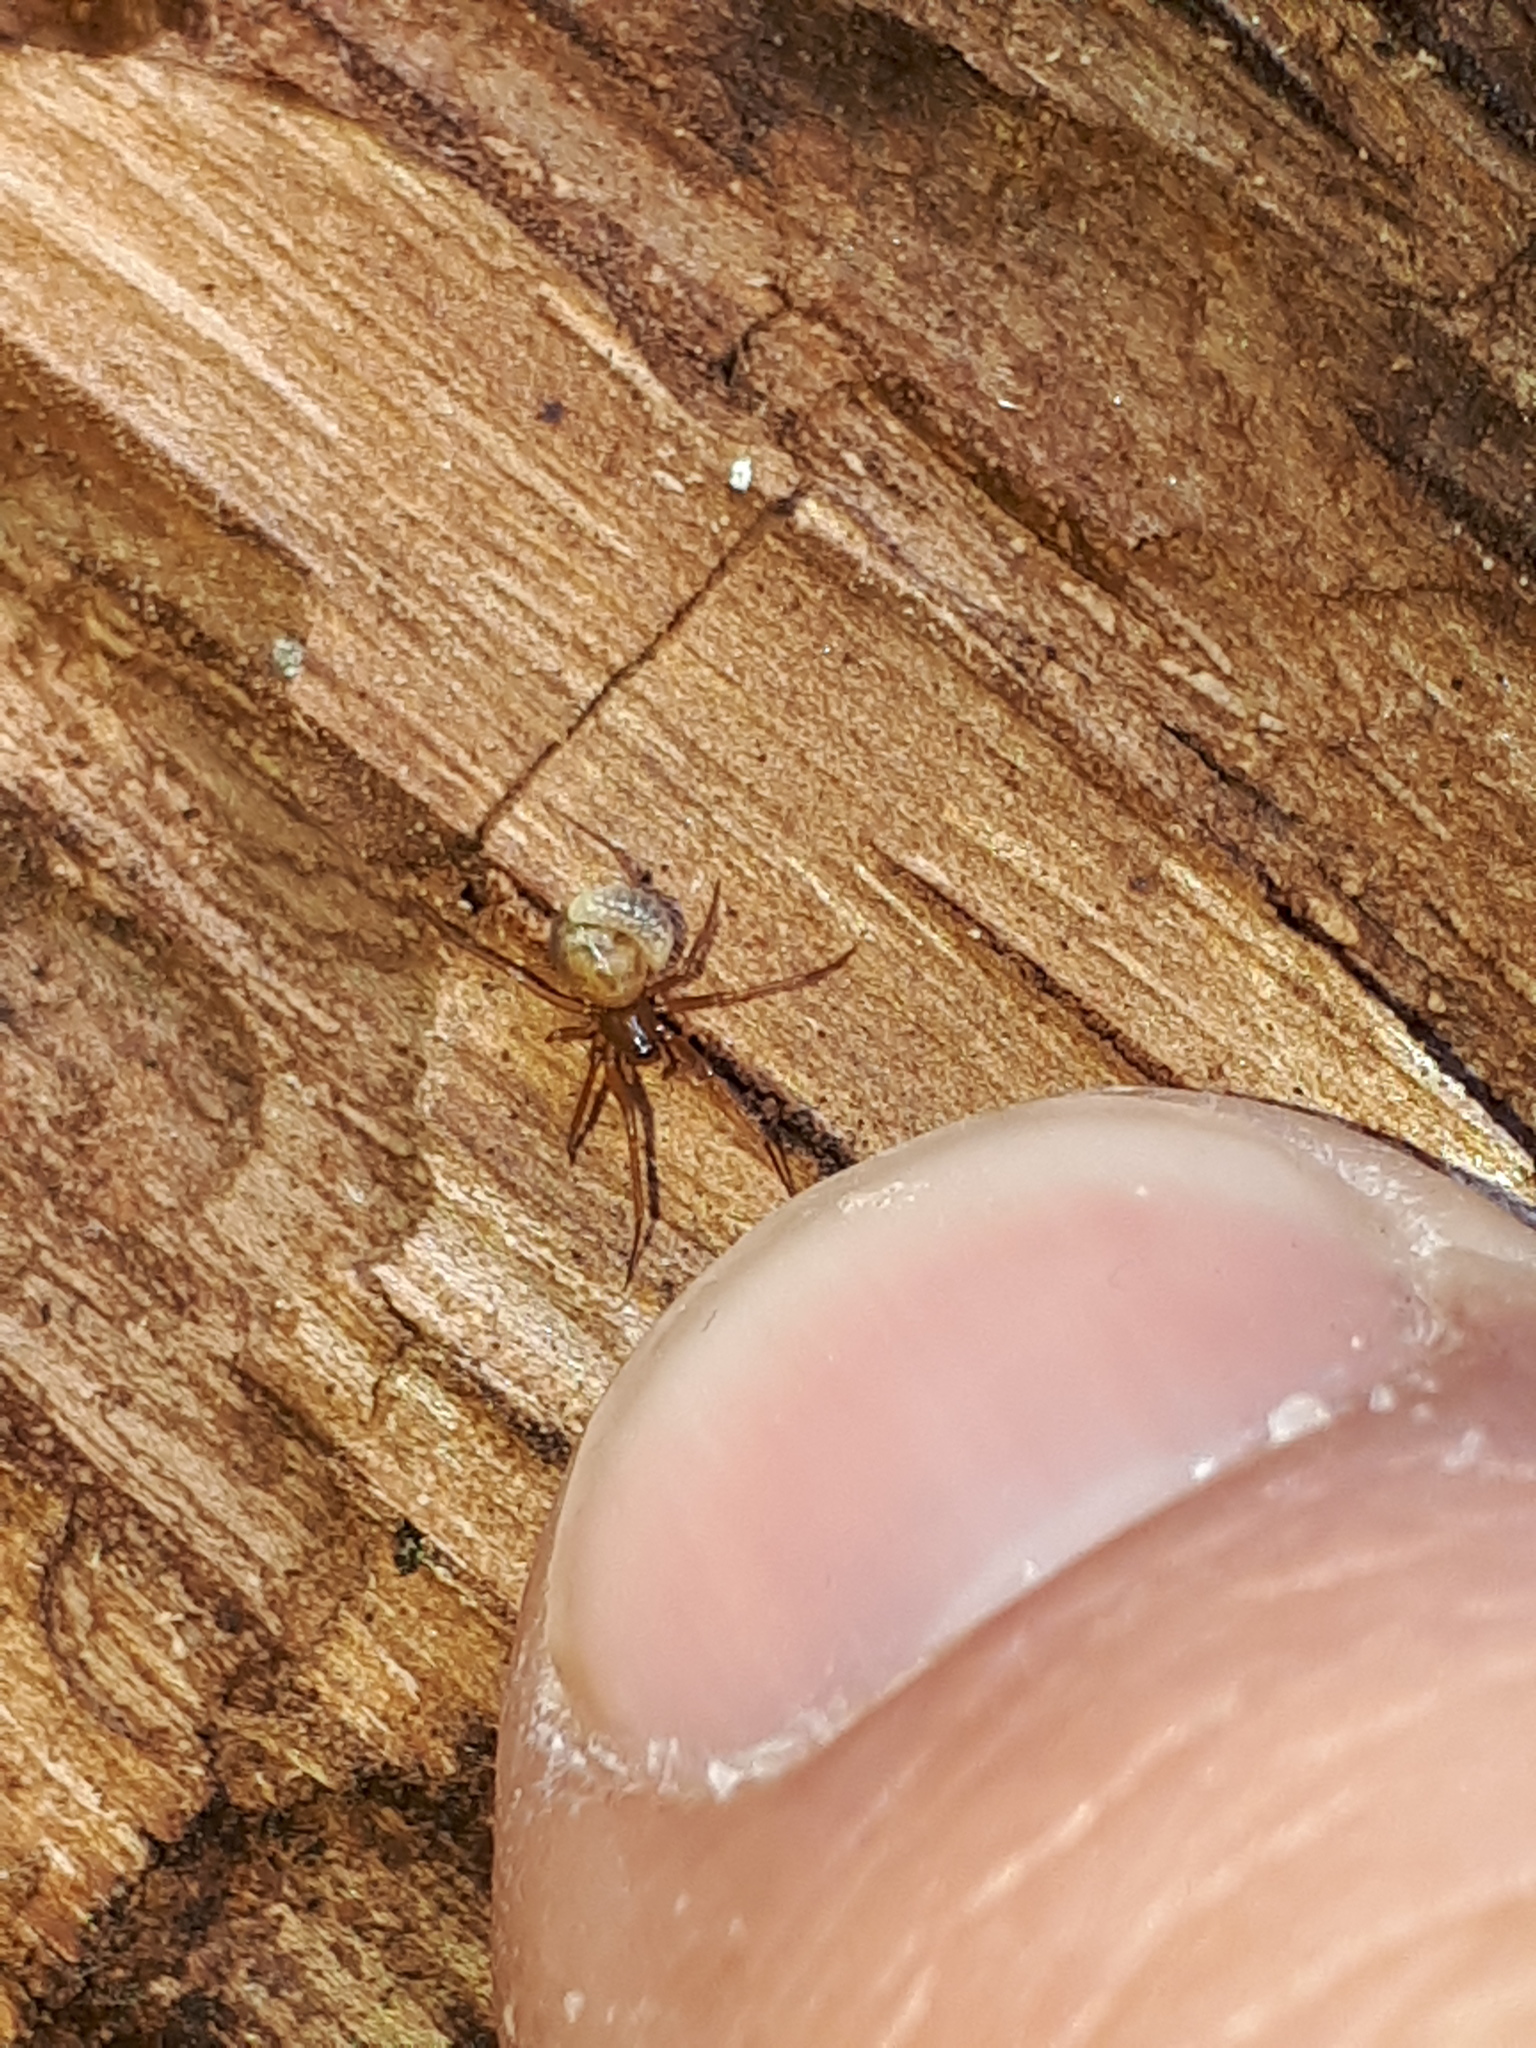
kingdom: Animalia
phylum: Arthropoda
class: Arachnida
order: Araneae
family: Theridiidae
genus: Steatoda
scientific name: Steatoda triangulosa
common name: Triangulate bud spider
